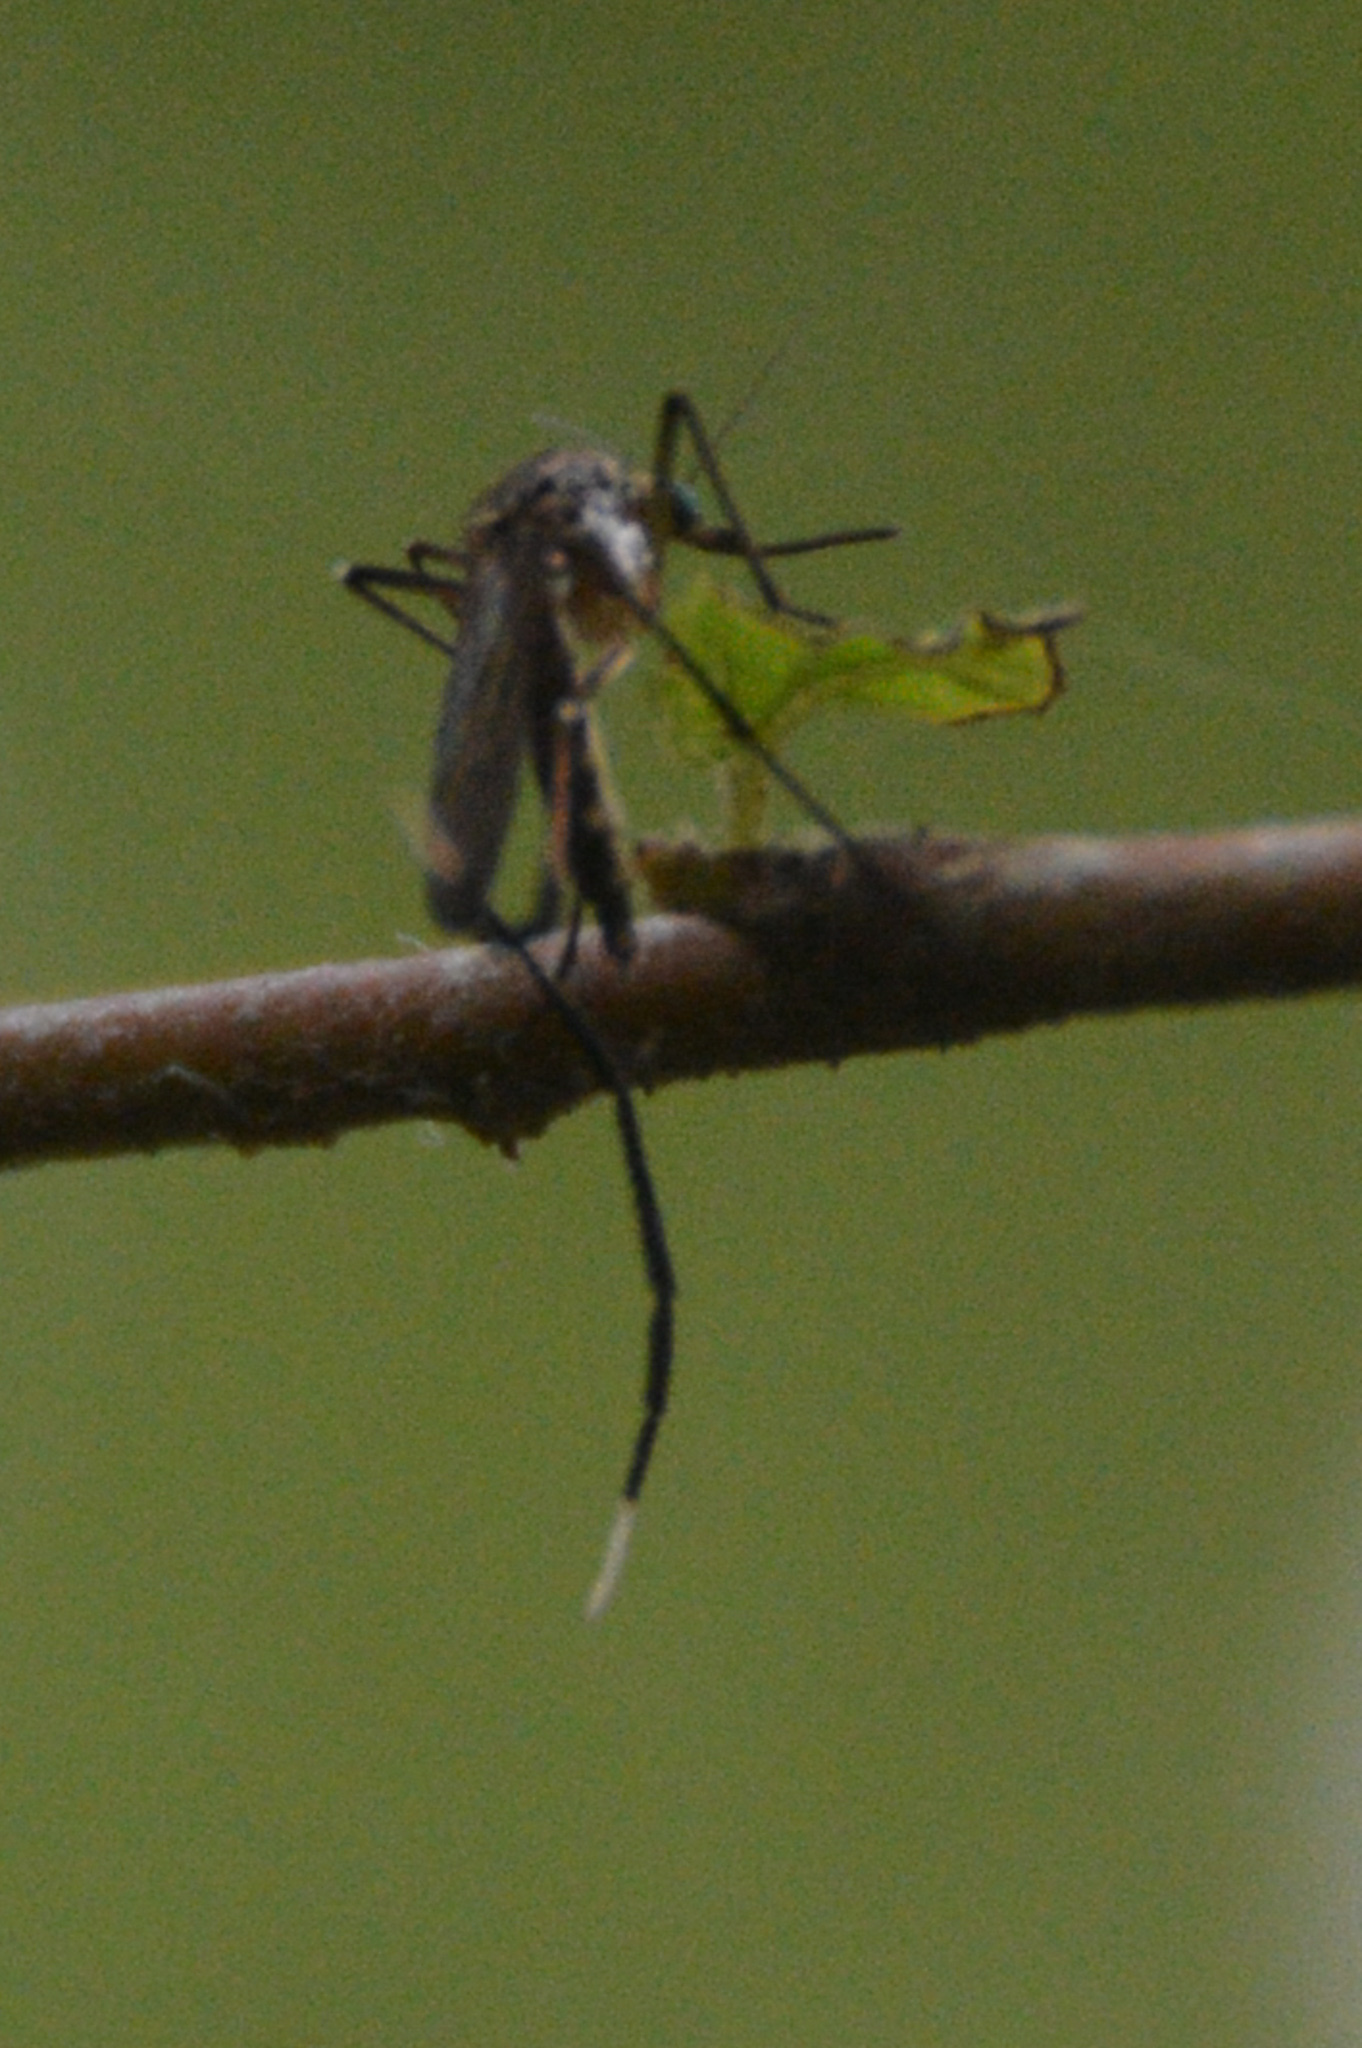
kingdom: Animalia
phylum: Arthropoda
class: Insecta
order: Diptera
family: Culicidae
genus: Psorophora
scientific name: Psorophora ferox
